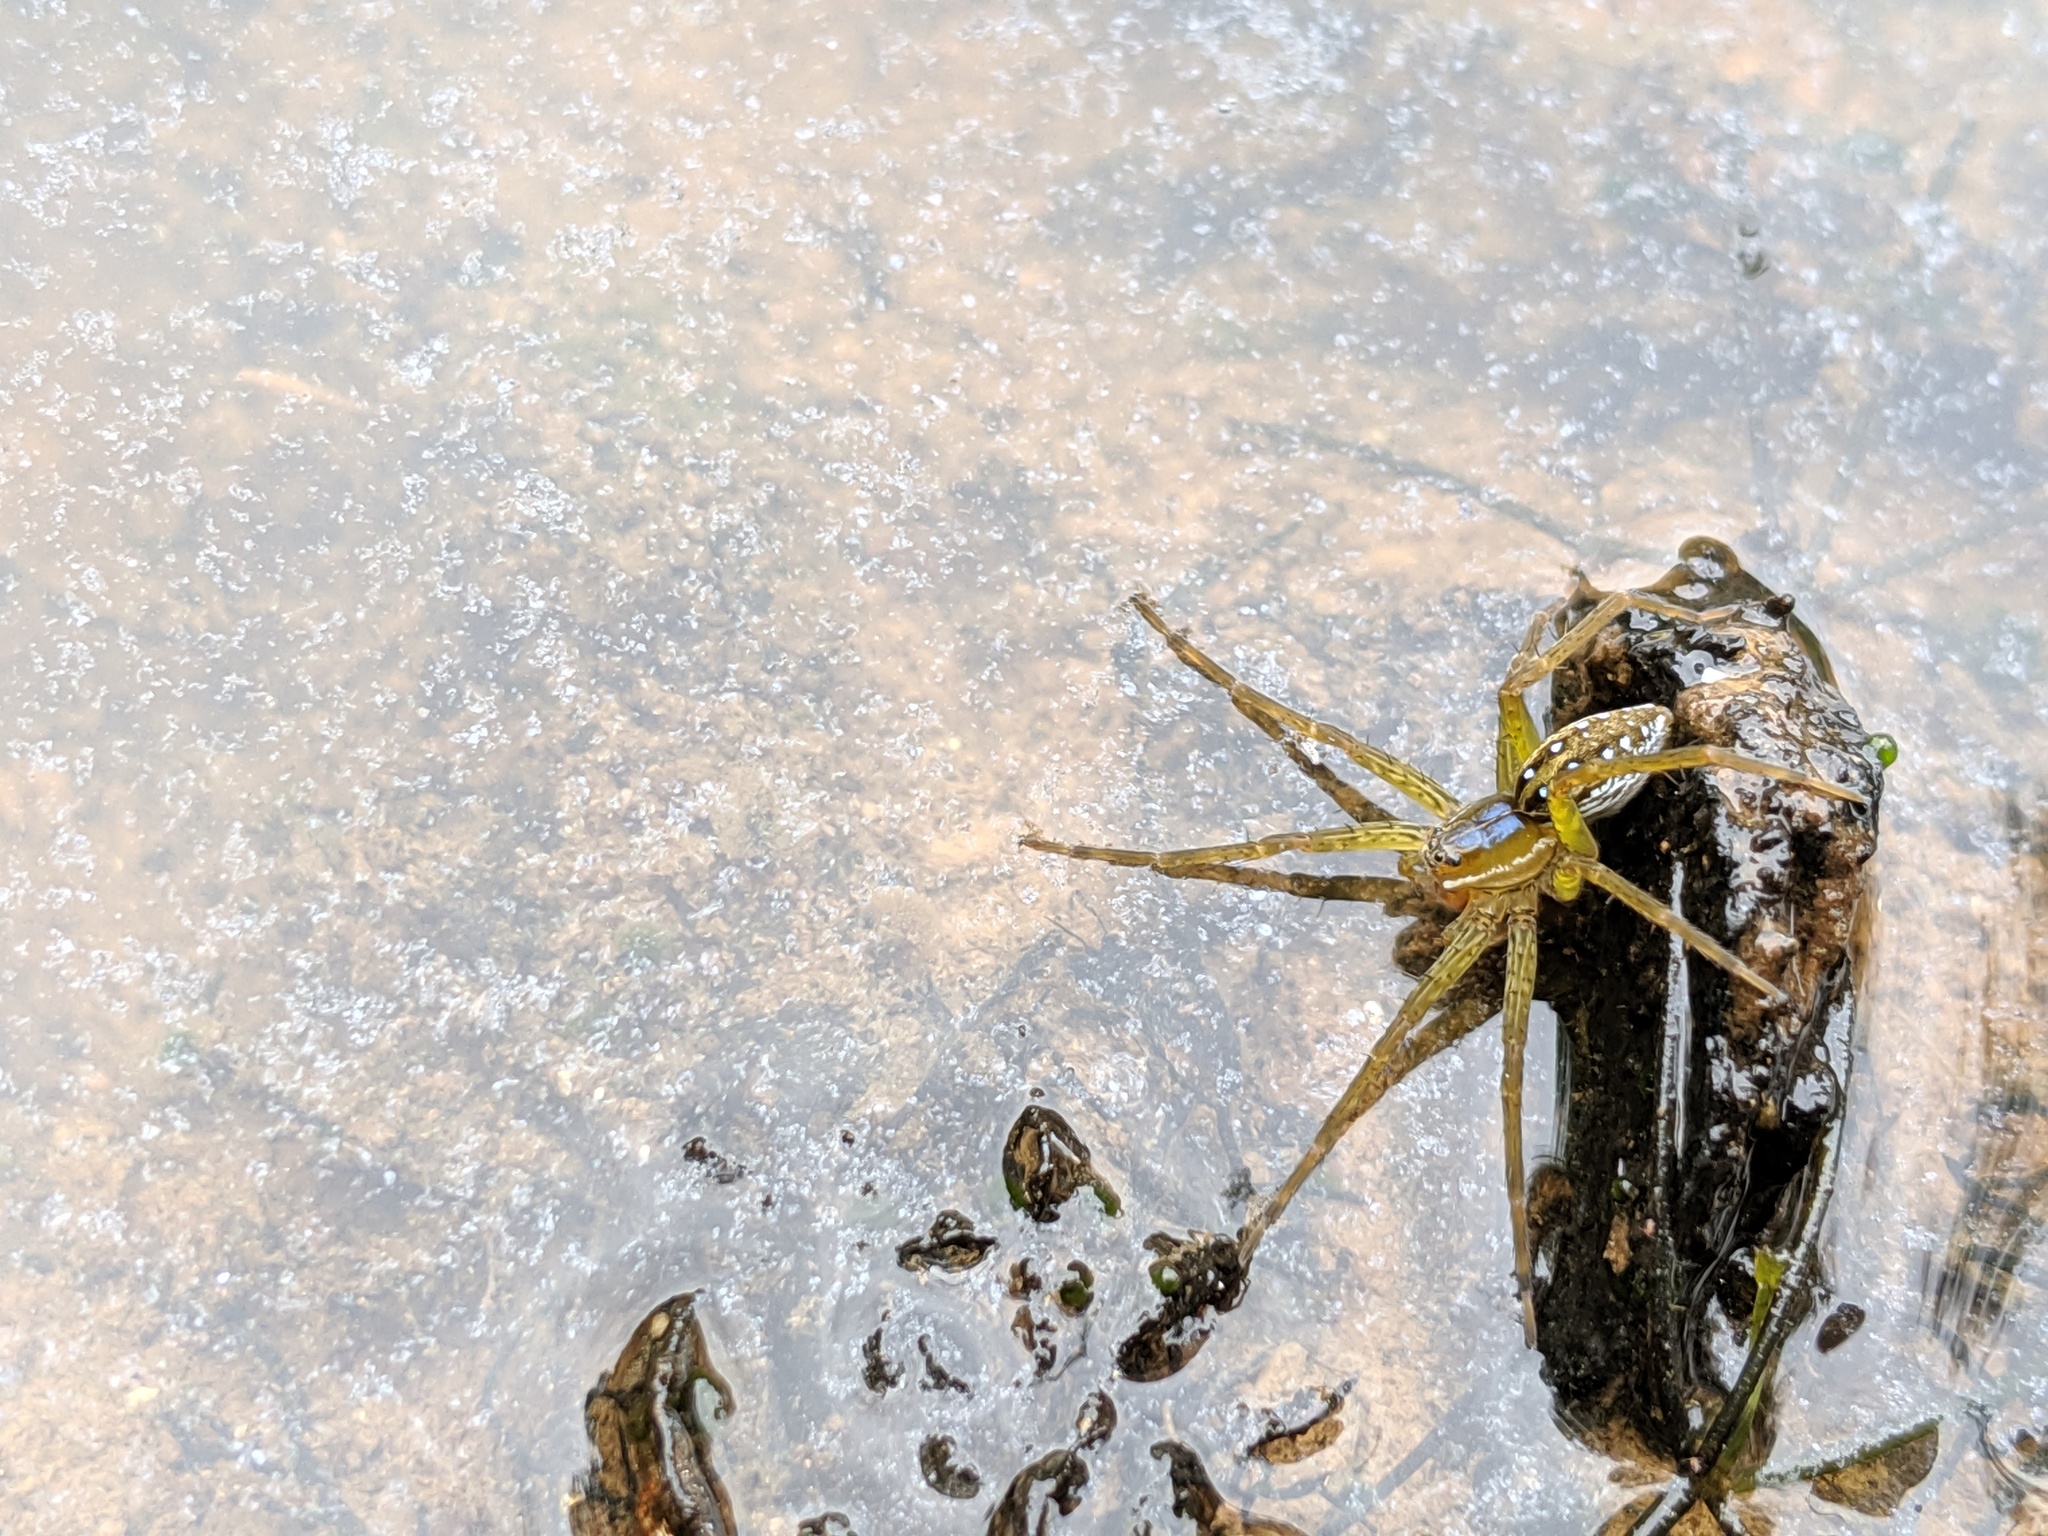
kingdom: Animalia
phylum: Arthropoda
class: Arachnida
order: Araneae
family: Pisauridae
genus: Dolomedes
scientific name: Dolomedes triton
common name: Six-spotted fishing spider
